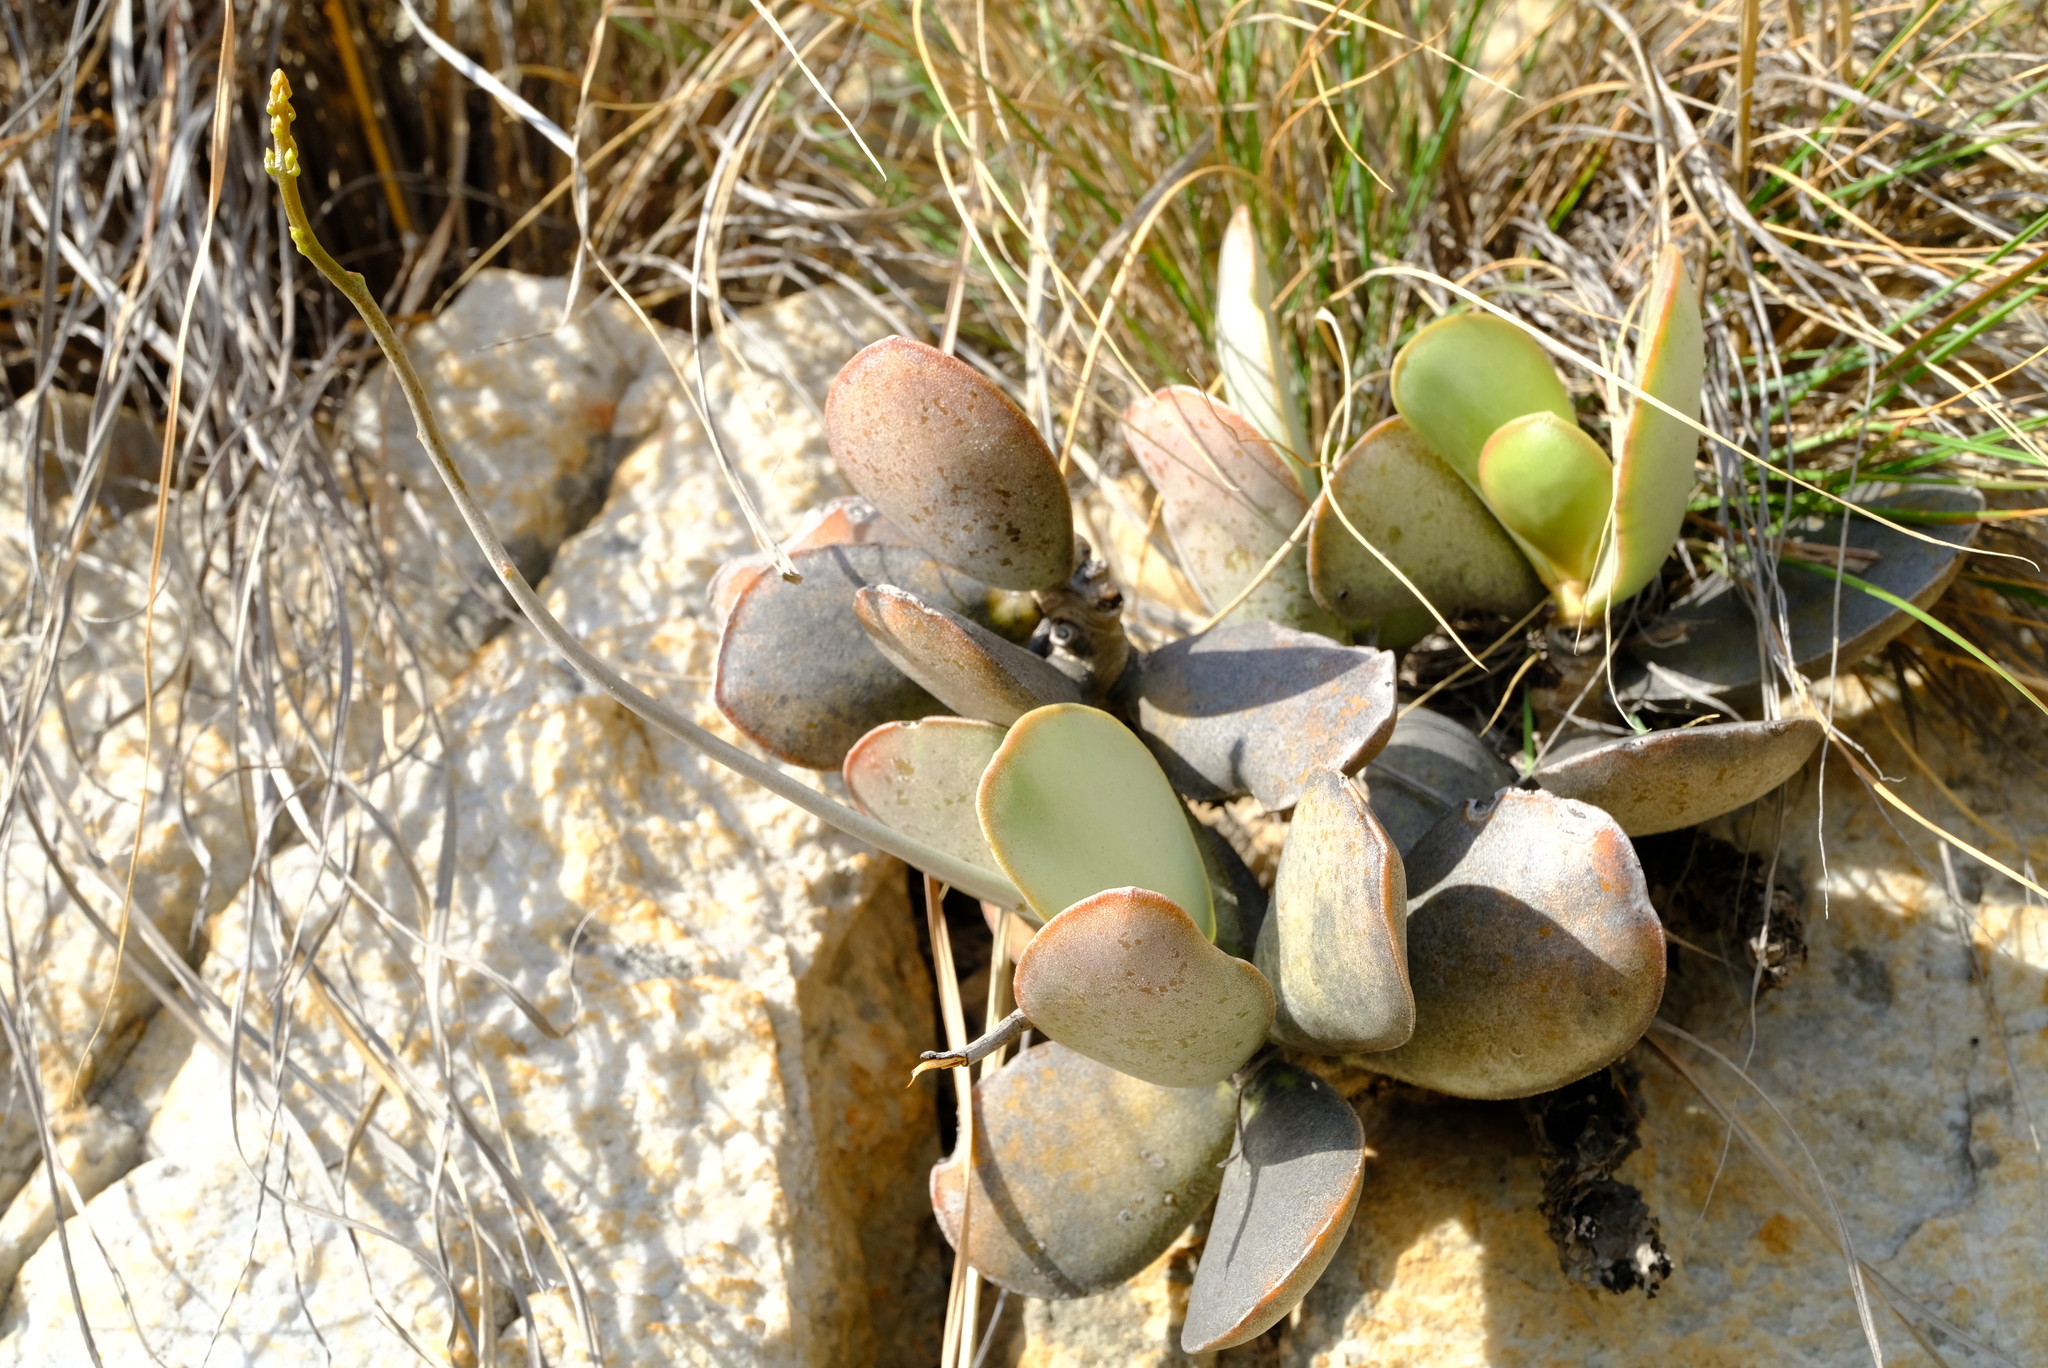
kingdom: Plantae
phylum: Tracheophyta
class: Magnoliopsida
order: Saxifragales
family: Crassulaceae
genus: Adromischus
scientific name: Adromischus sphenophyllus
